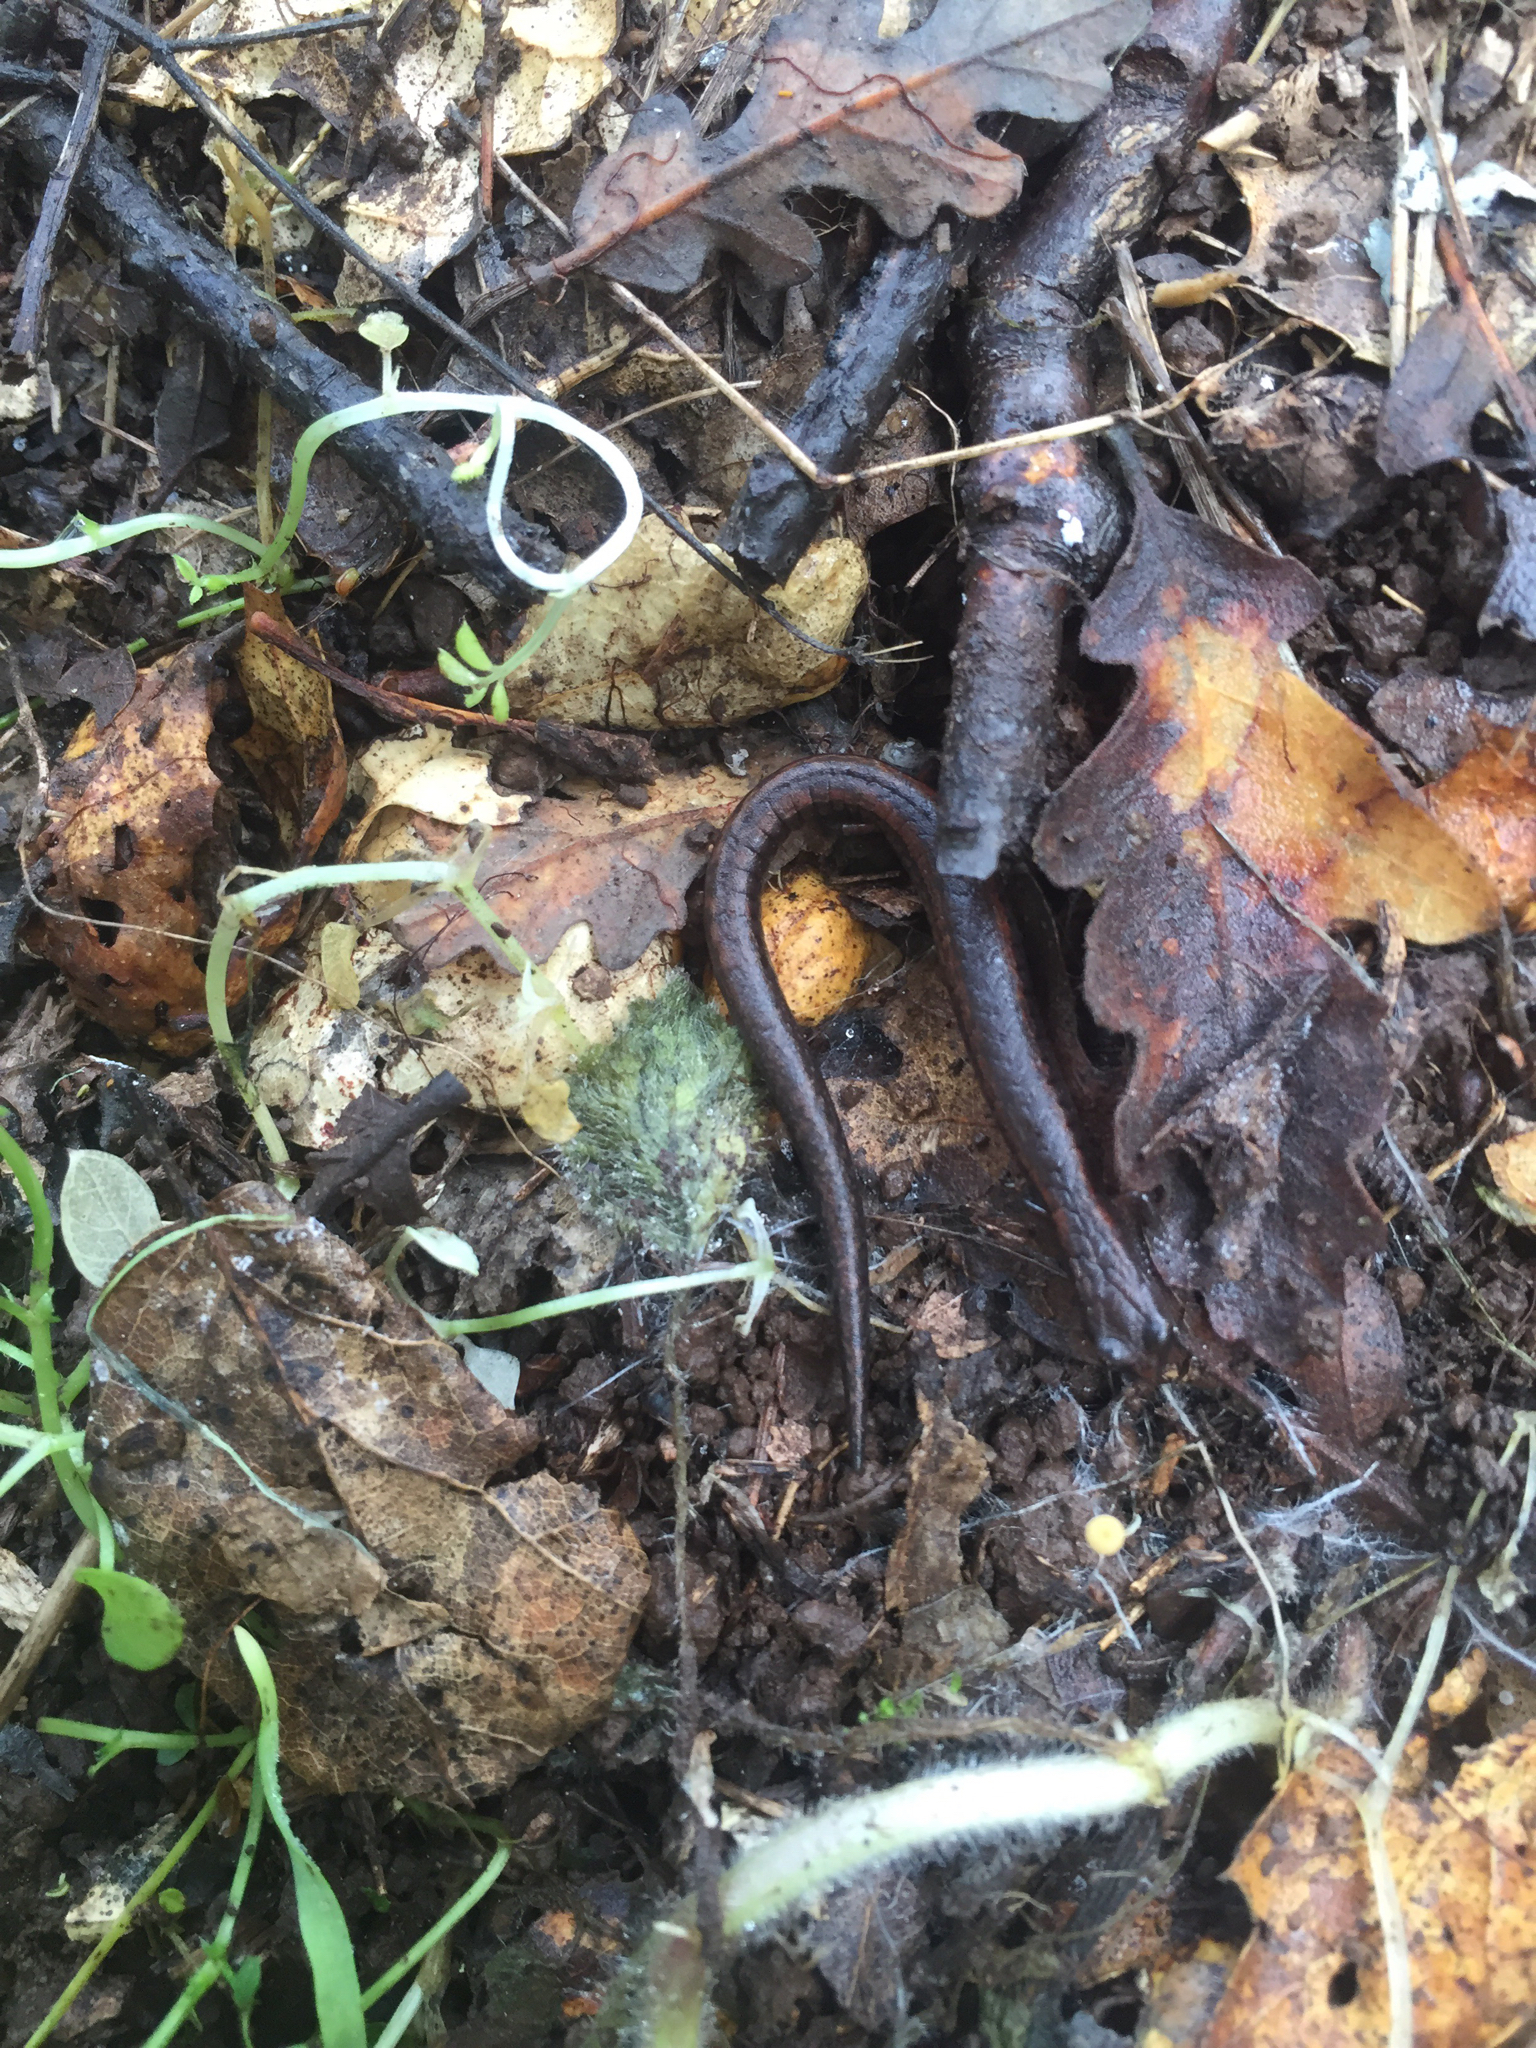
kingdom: Animalia
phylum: Chordata
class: Amphibia
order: Caudata
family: Plethodontidae
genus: Batrachoseps
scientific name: Batrachoseps attenuatus
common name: California slender salamander
